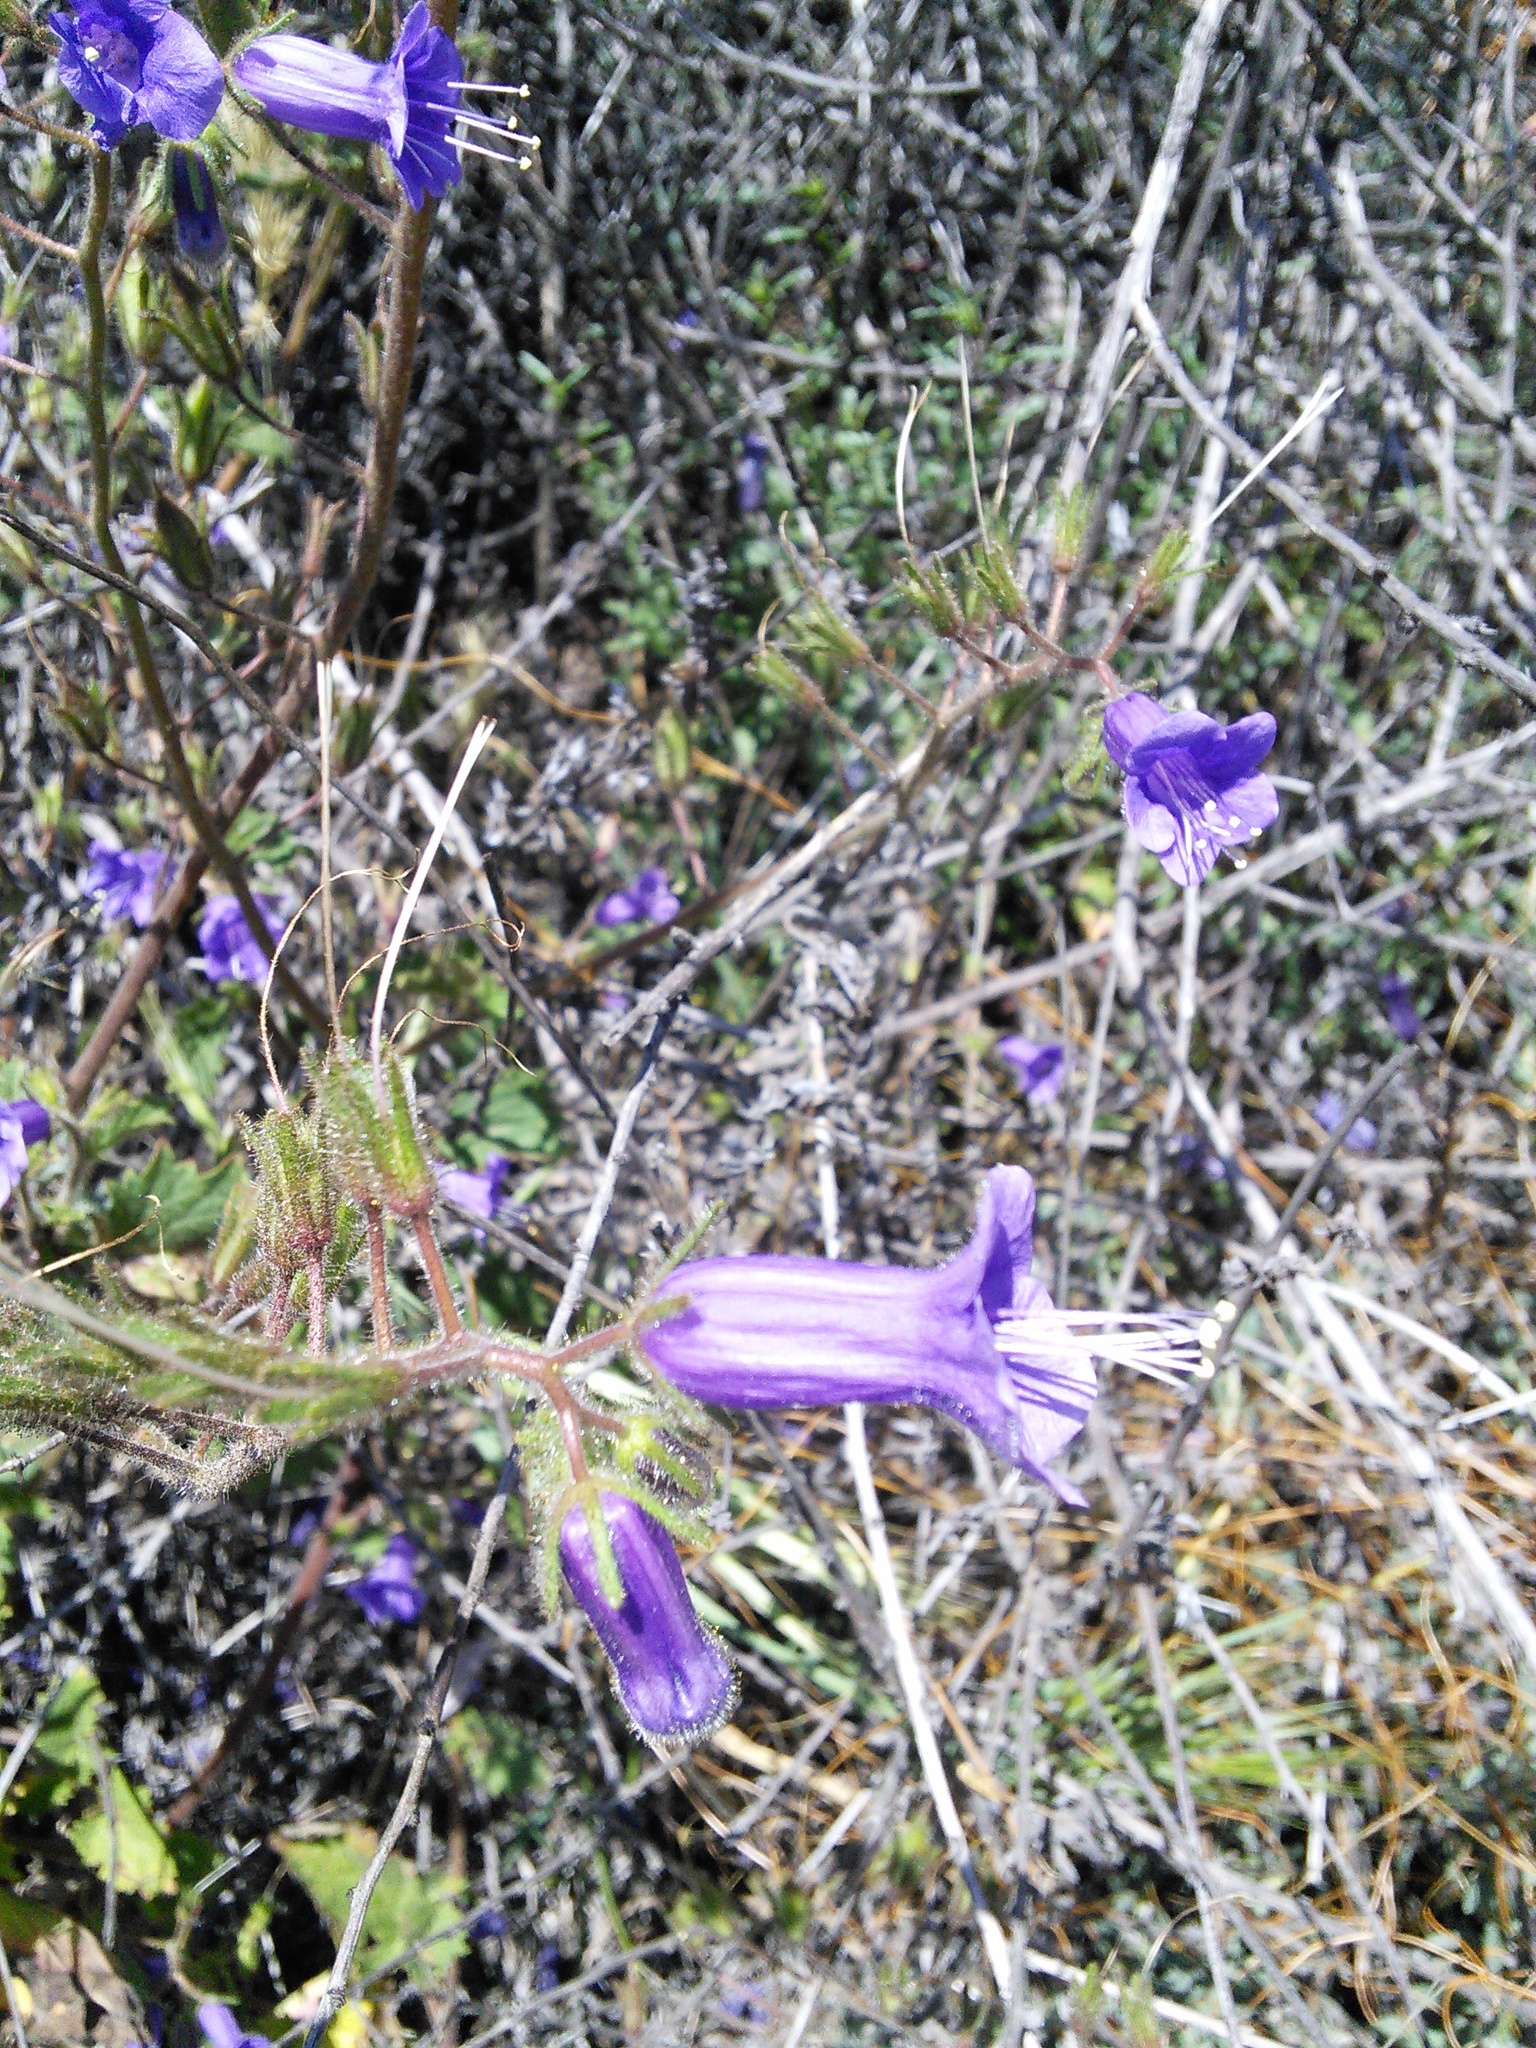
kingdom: Plantae
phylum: Tracheophyta
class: Magnoliopsida
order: Boraginales
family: Hydrophyllaceae
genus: Phacelia
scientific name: Phacelia minor
